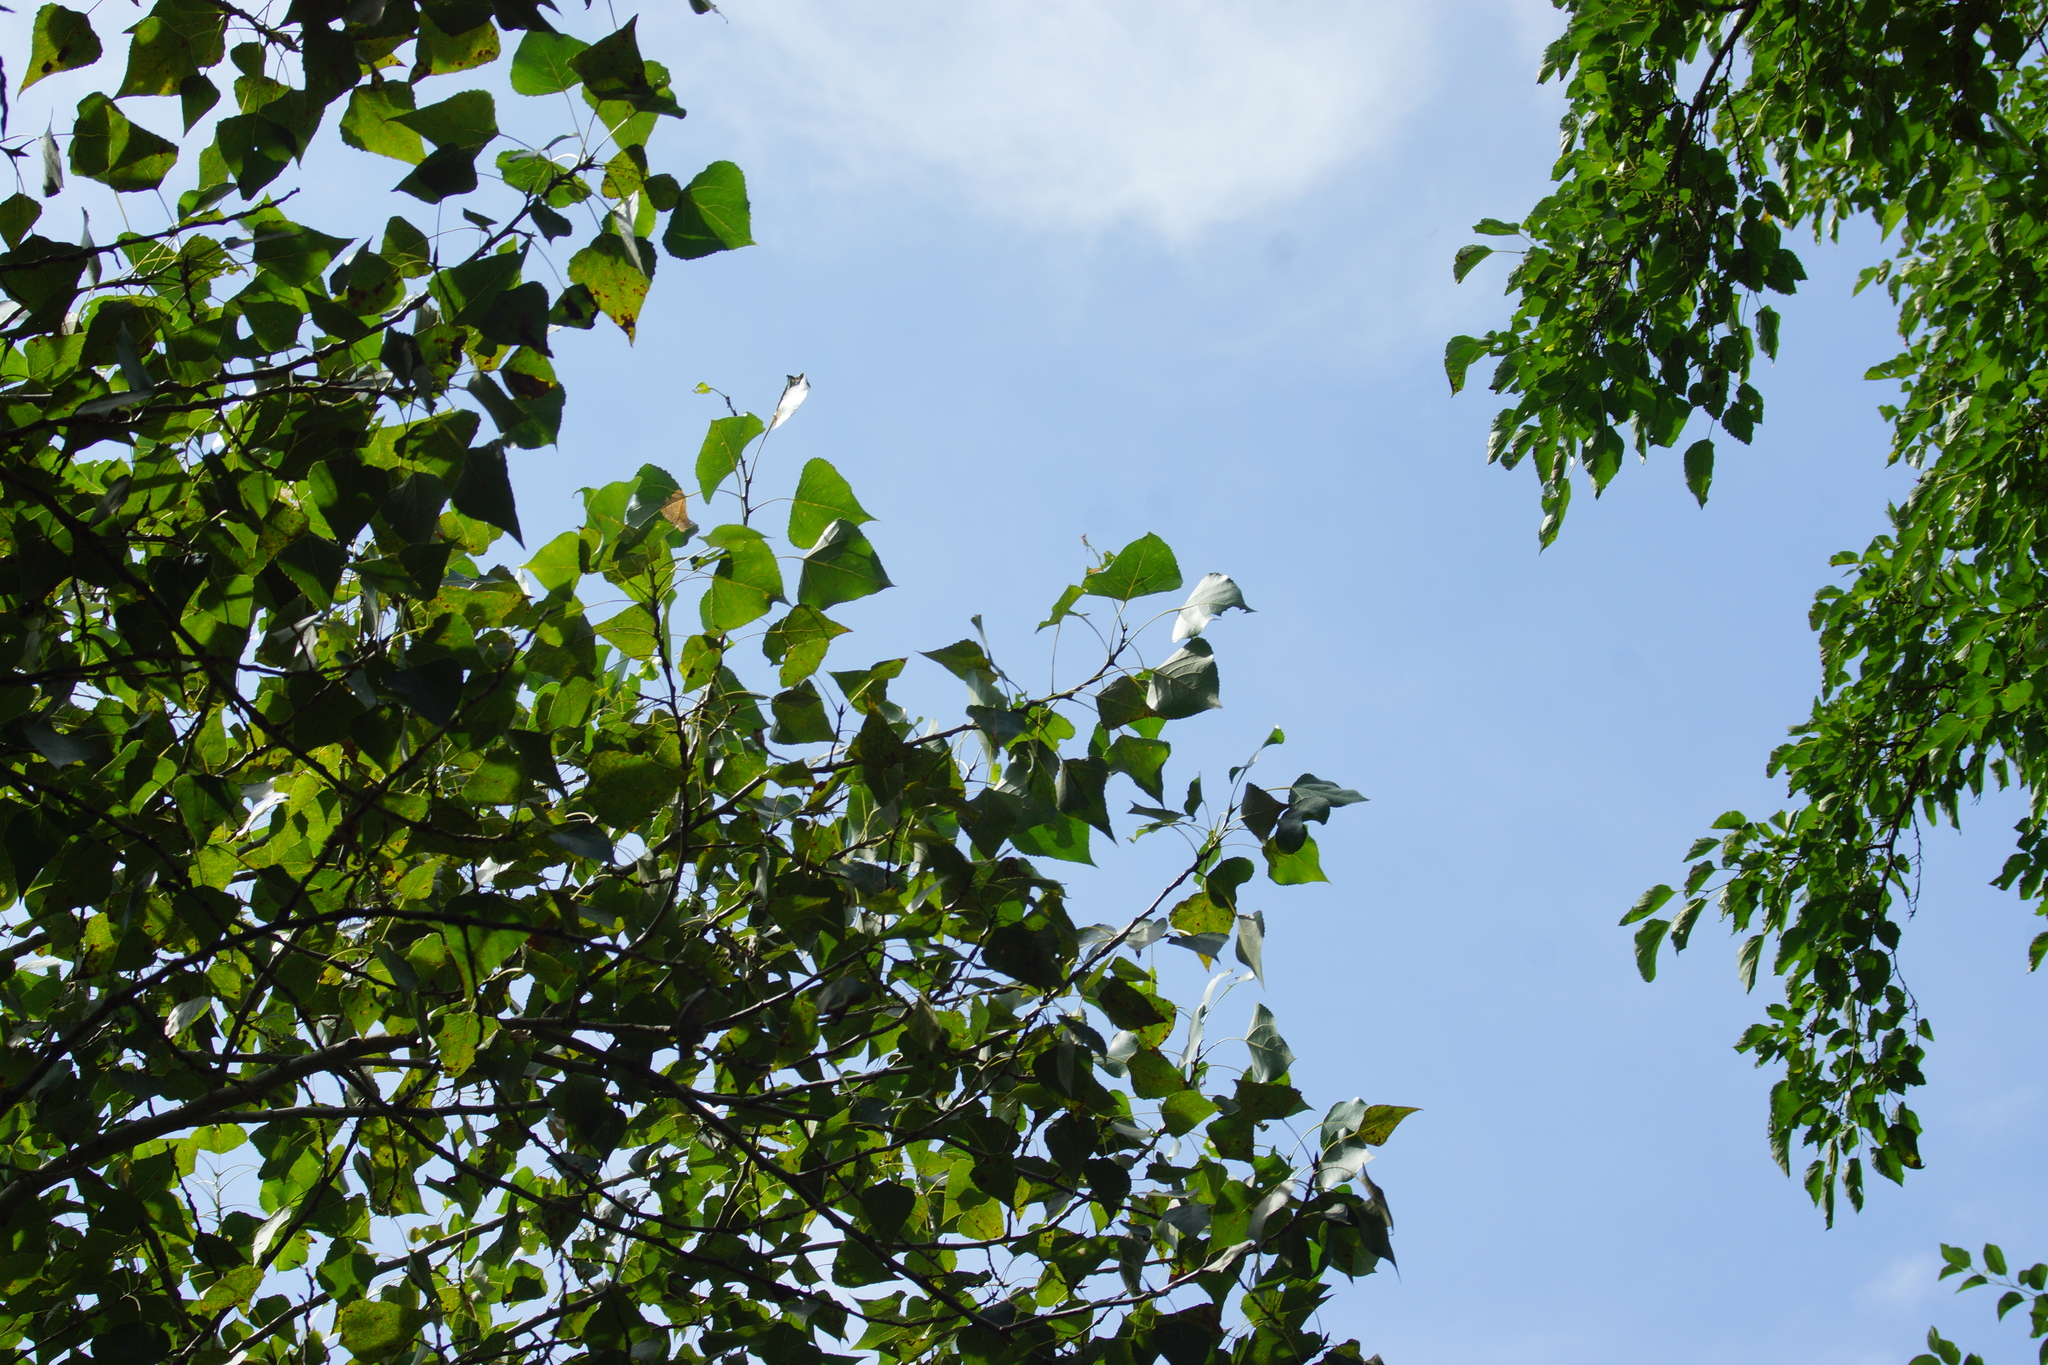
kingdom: Plantae
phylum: Tracheophyta
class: Magnoliopsida
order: Malpighiales
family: Salicaceae
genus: Populus
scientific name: Populus nigra
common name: Black poplar
